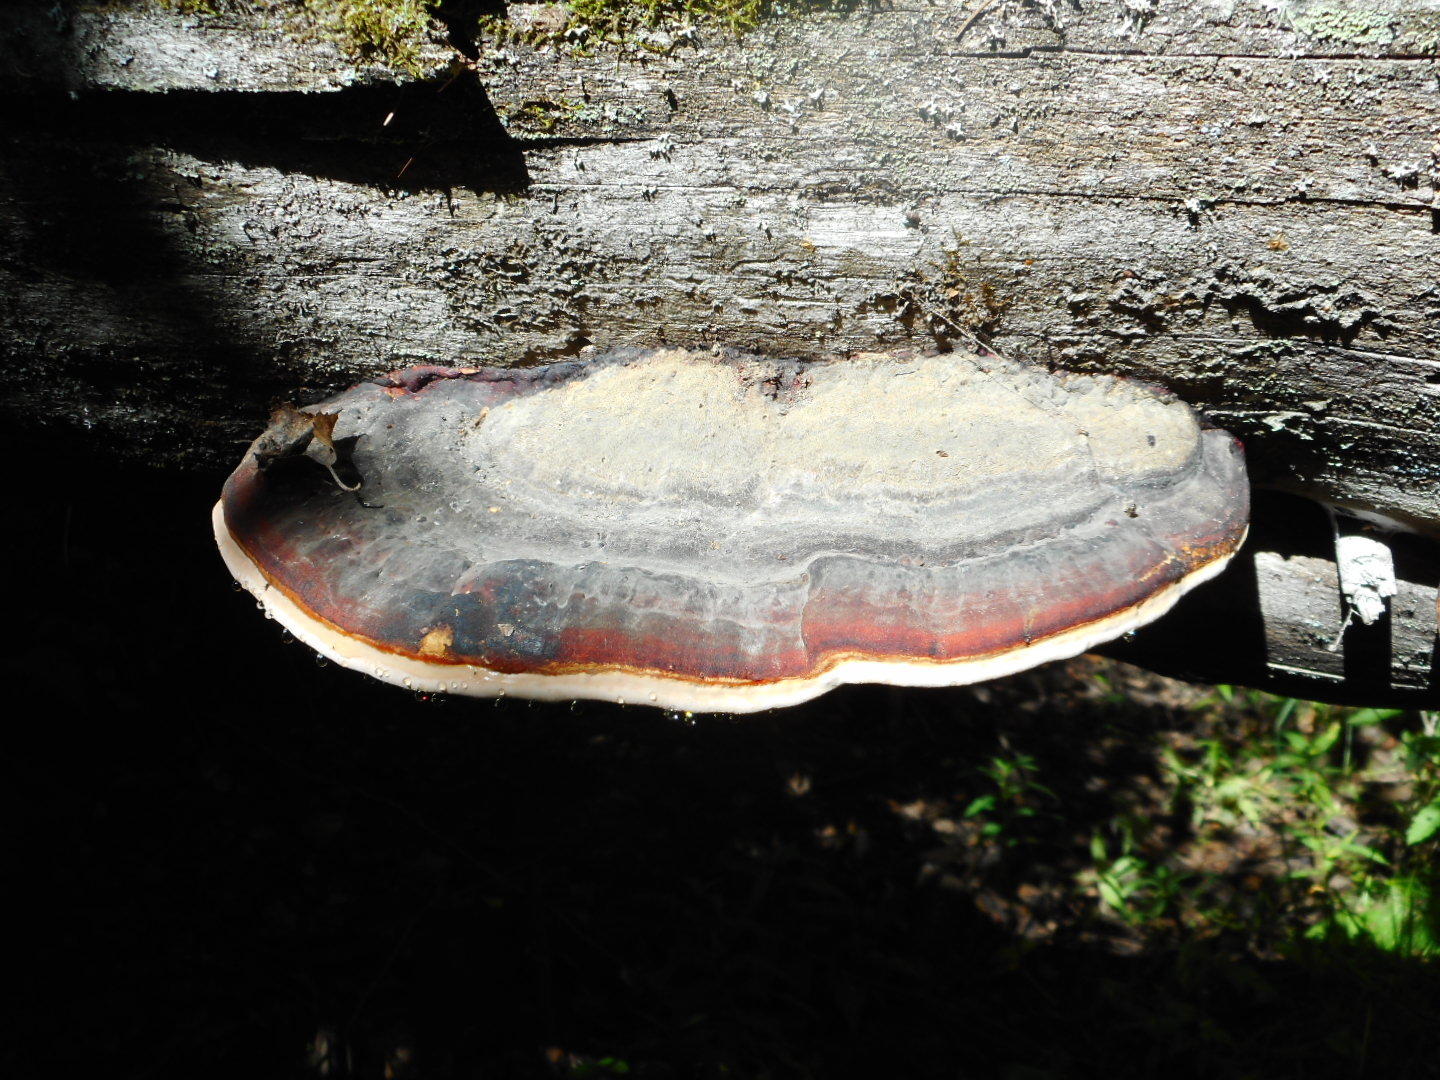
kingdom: Fungi
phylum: Basidiomycota
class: Agaricomycetes
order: Polyporales
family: Fomitopsidaceae
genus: Fomitopsis
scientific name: Fomitopsis pinicola
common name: Red-belted bracket
